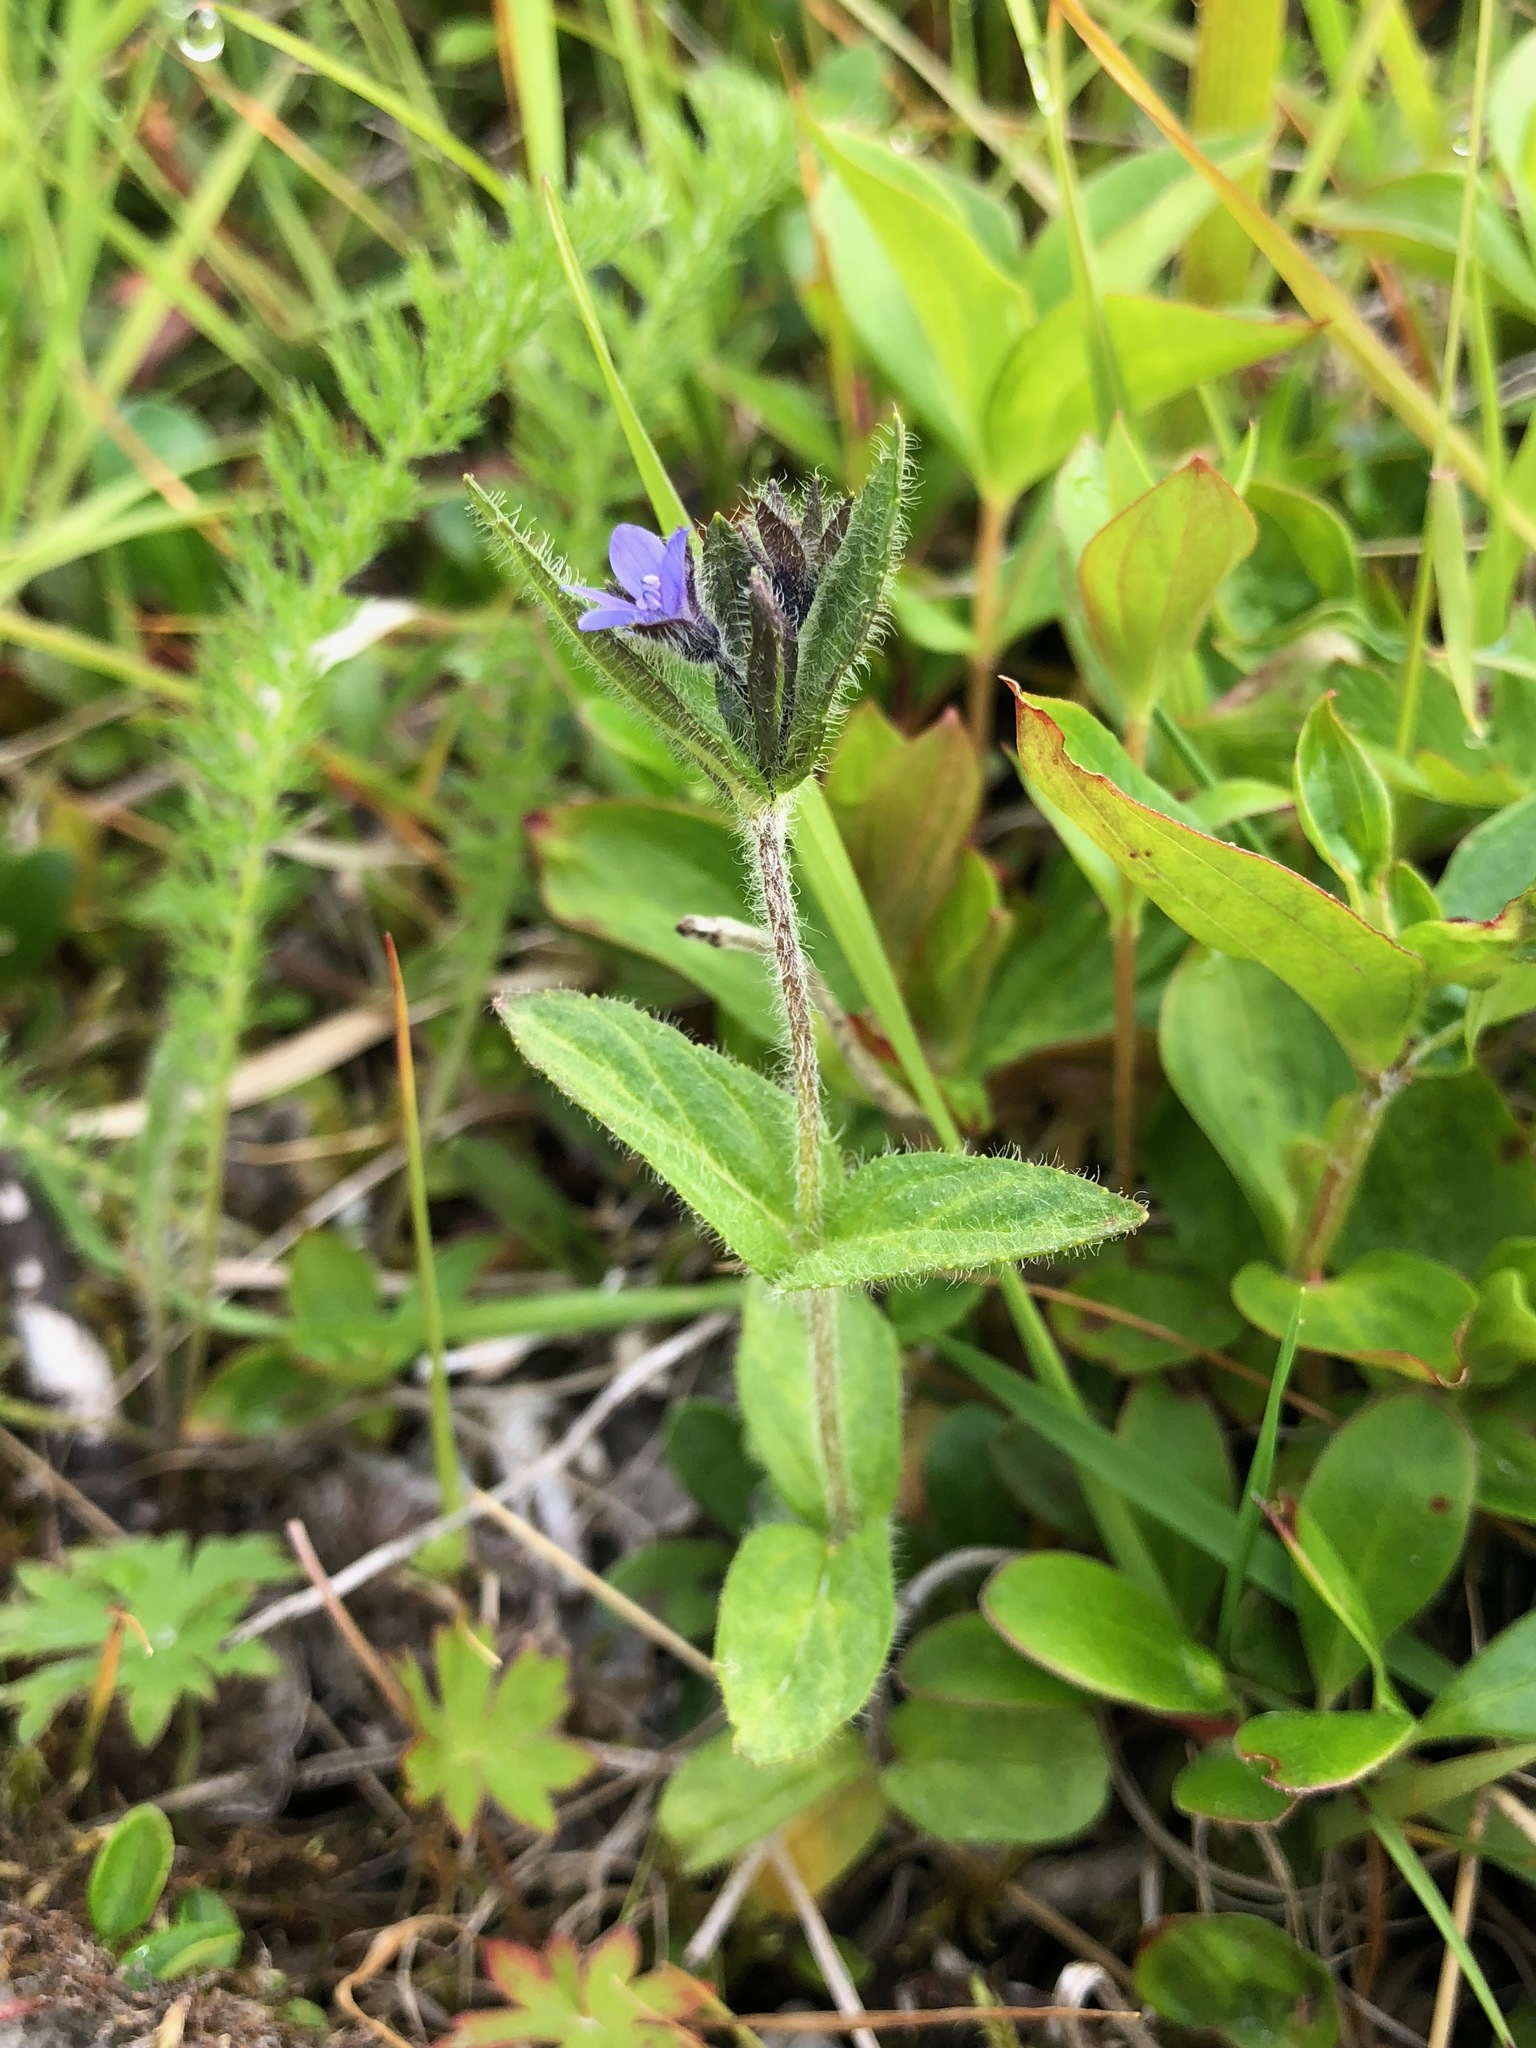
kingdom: Plantae
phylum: Tracheophyta
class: Magnoliopsida
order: Lamiales
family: Plantaginaceae
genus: Veronica
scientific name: Veronica wormskjoldii
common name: American alpine speedwell
